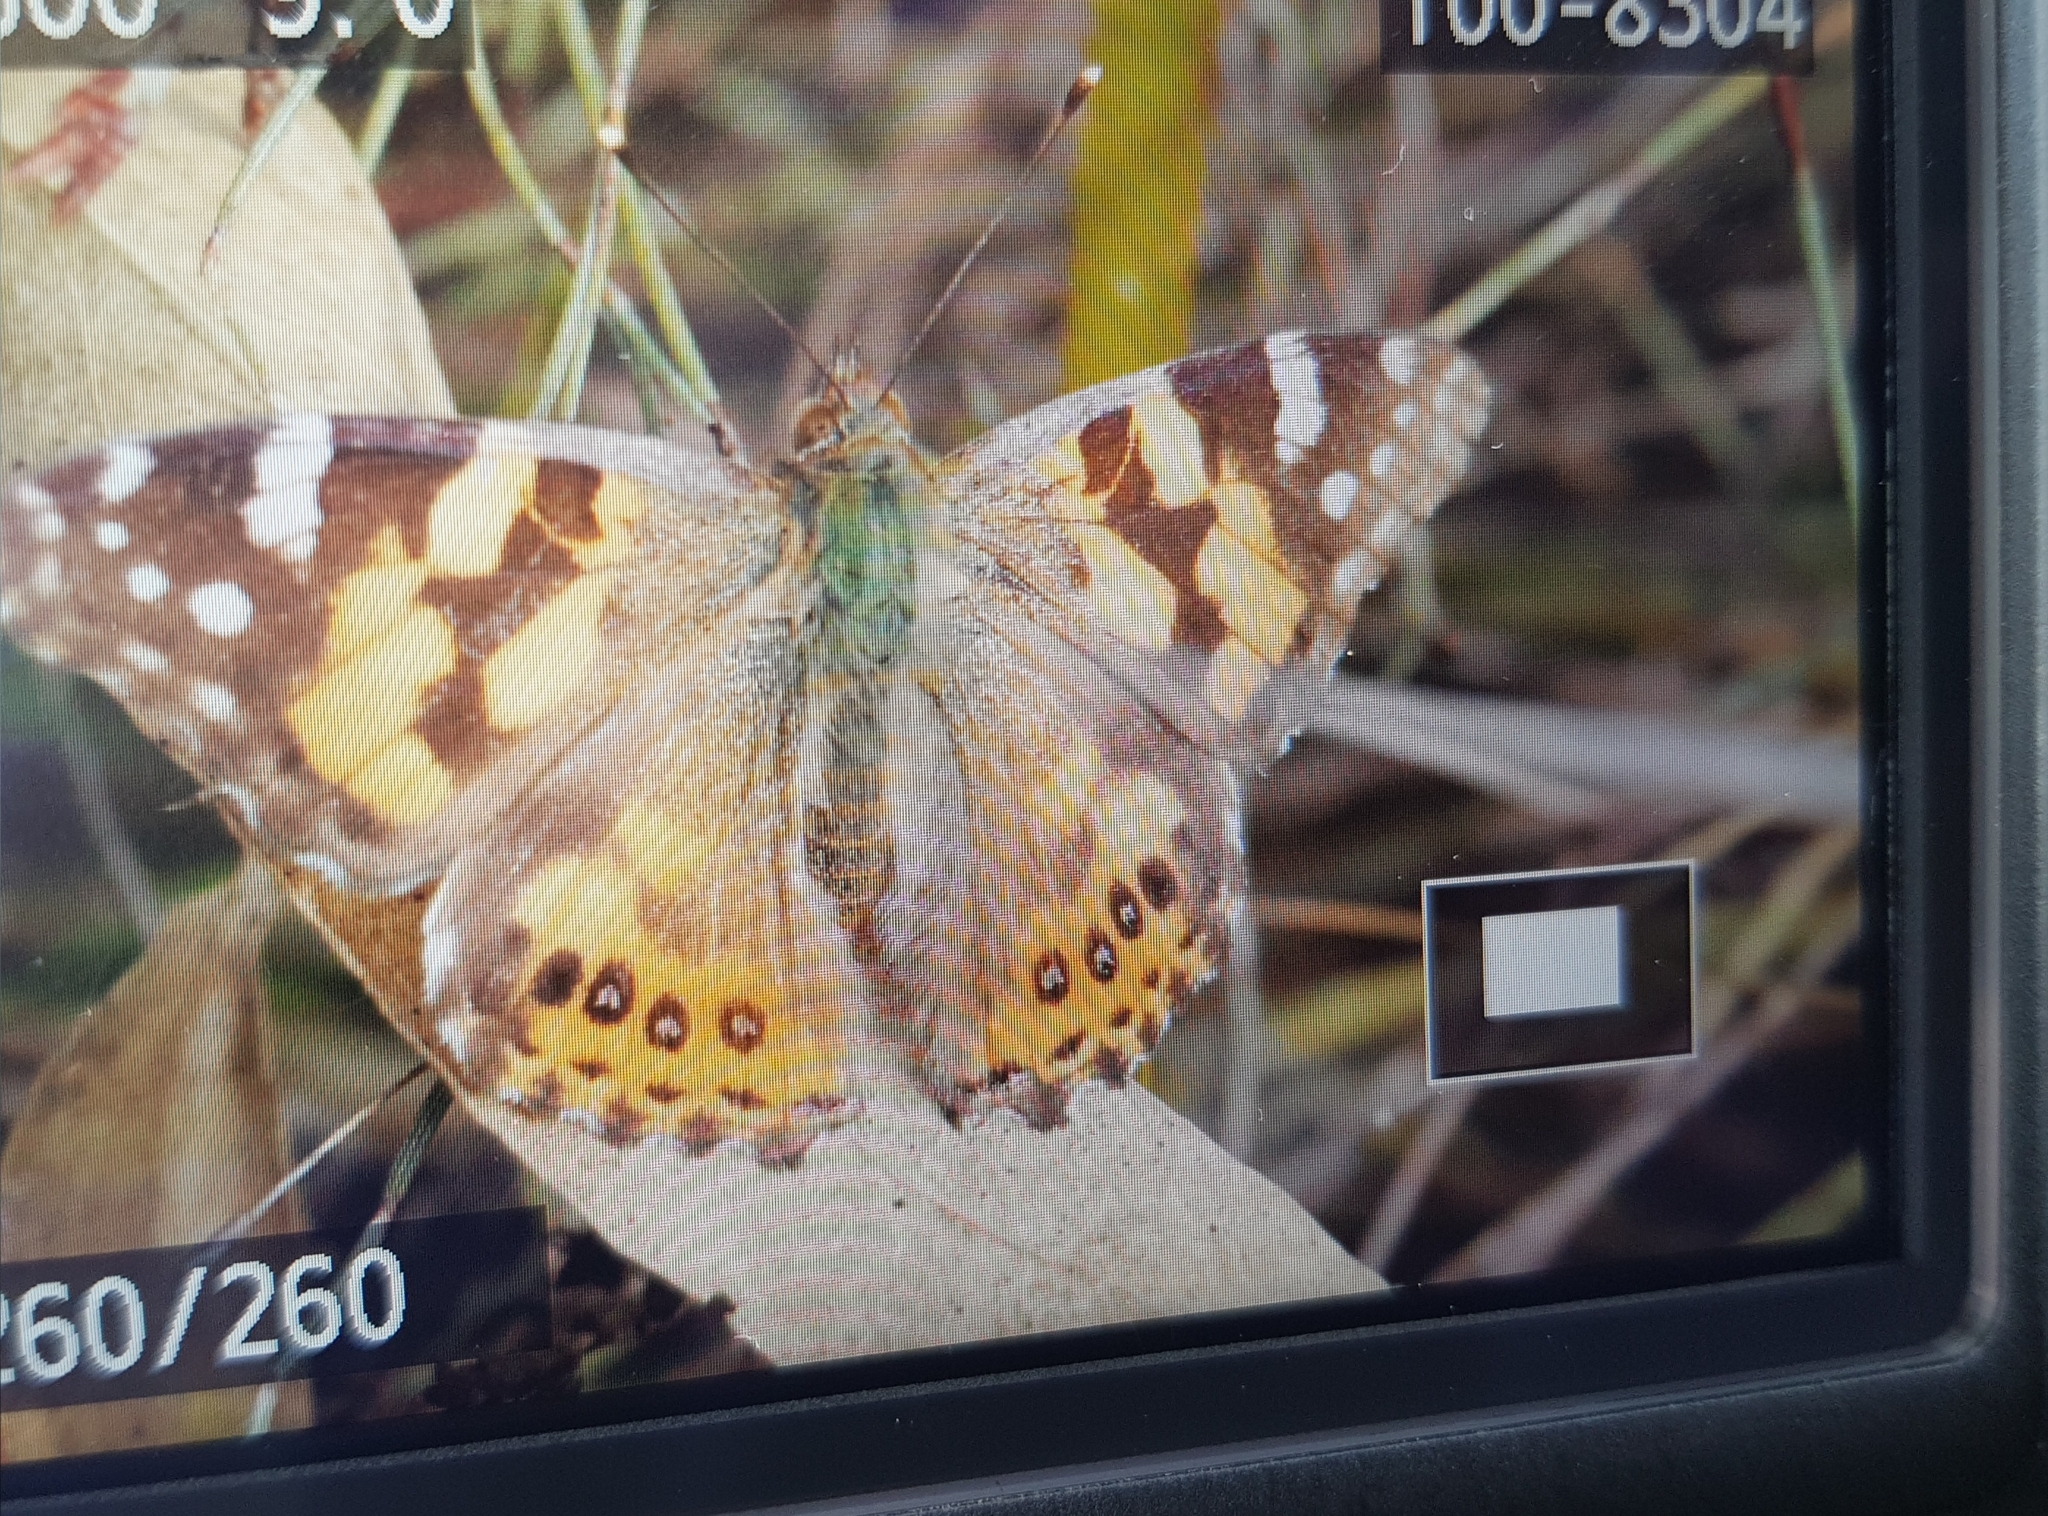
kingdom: Animalia
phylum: Arthropoda
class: Insecta
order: Lepidoptera
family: Nymphalidae
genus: Vanessa
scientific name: Vanessa kershawi
